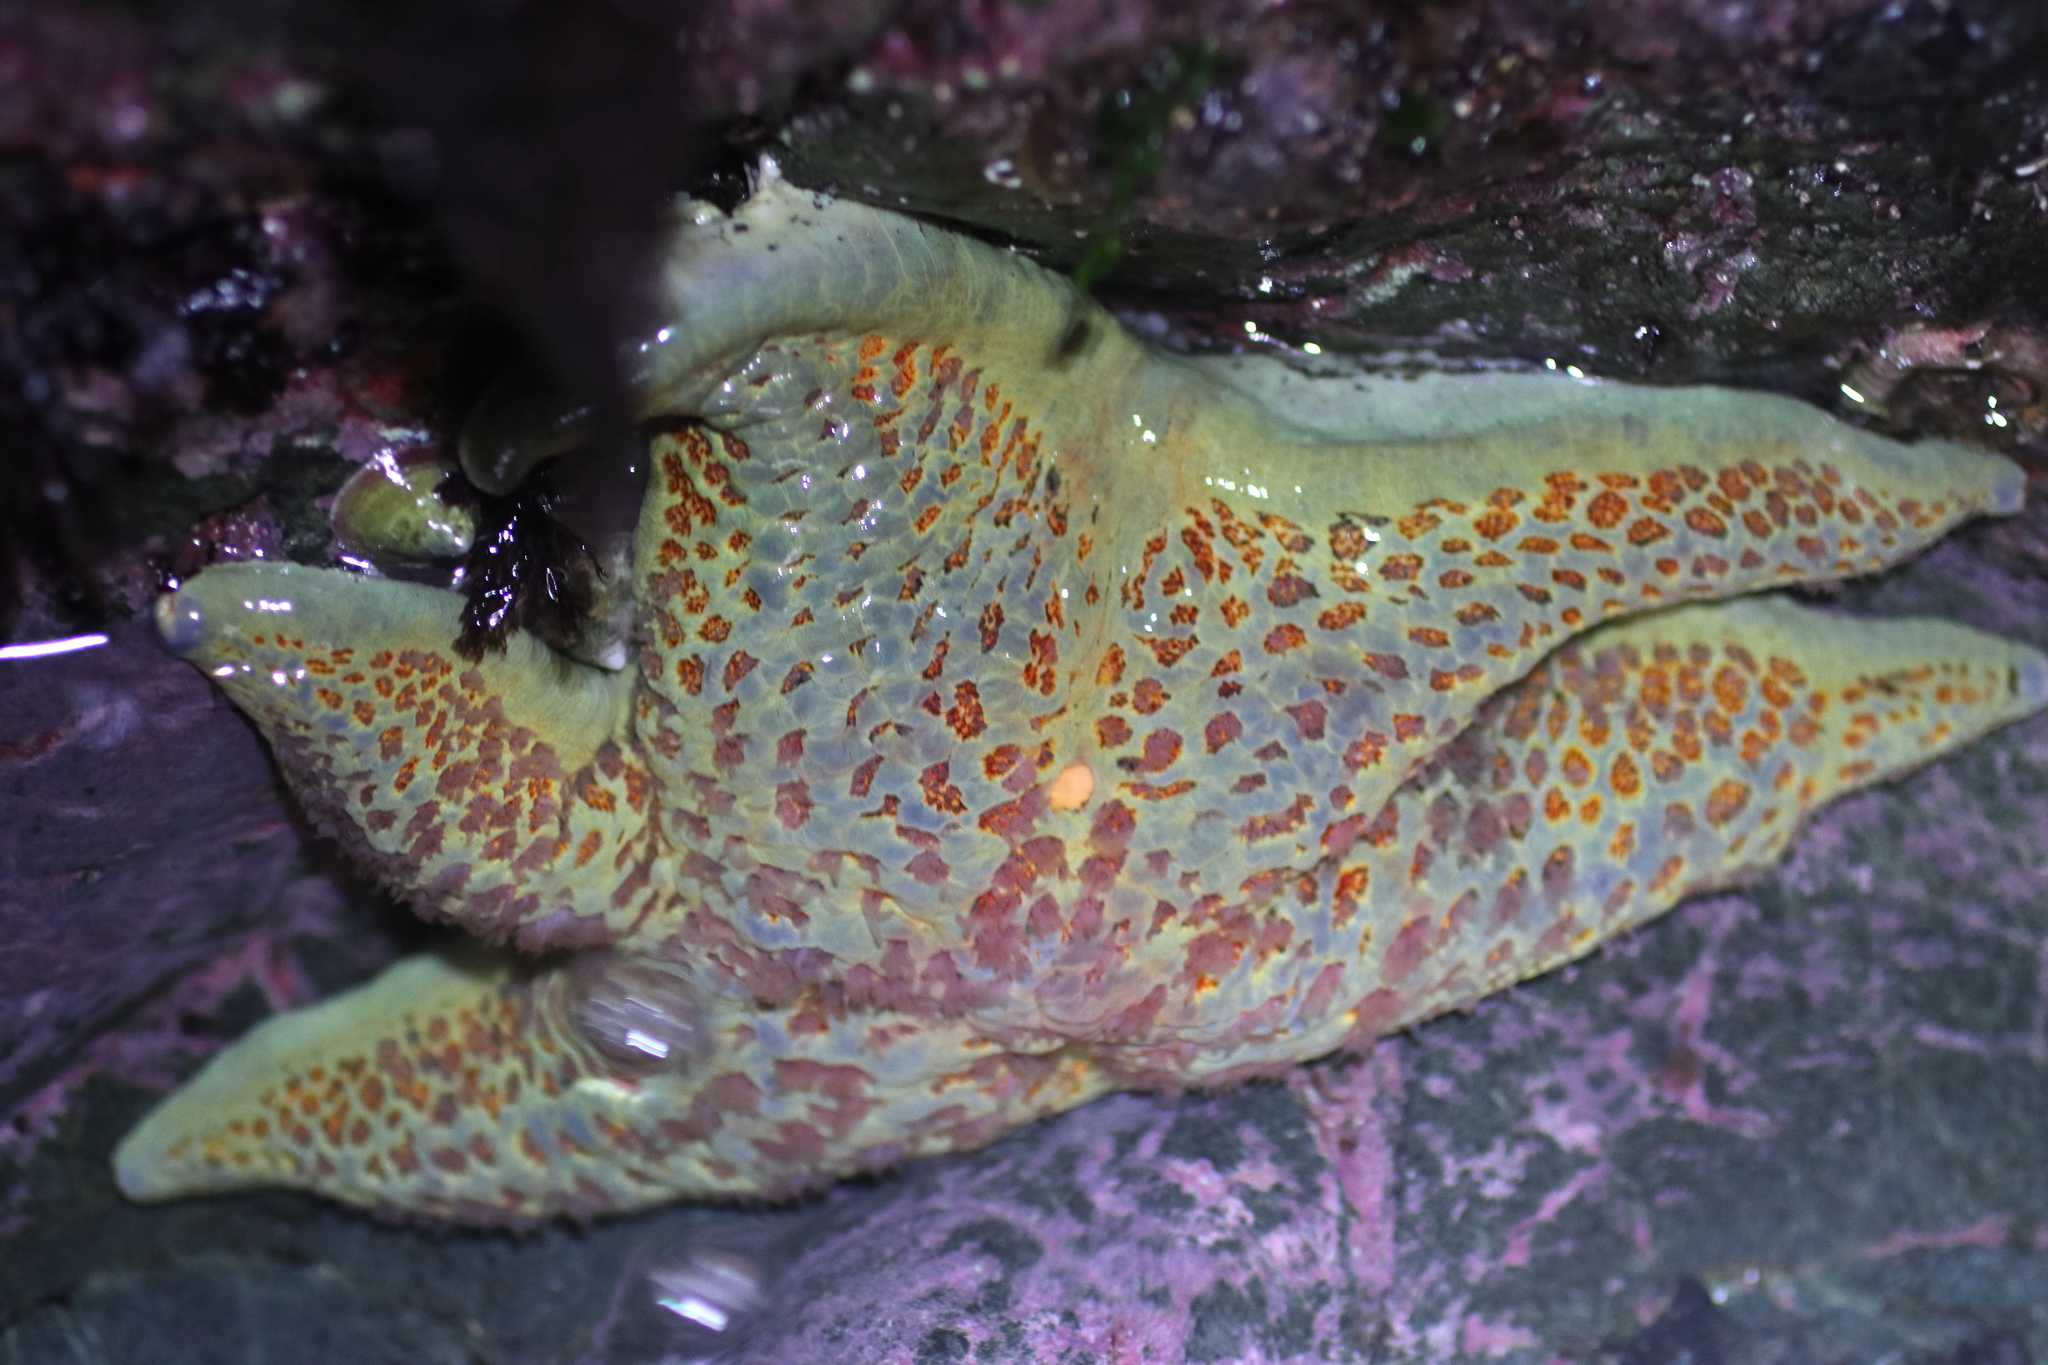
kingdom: Animalia
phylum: Echinodermata
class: Asteroidea
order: Valvatida
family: Asteropseidae
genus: Dermasterias
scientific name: Dermasterias imbricata
